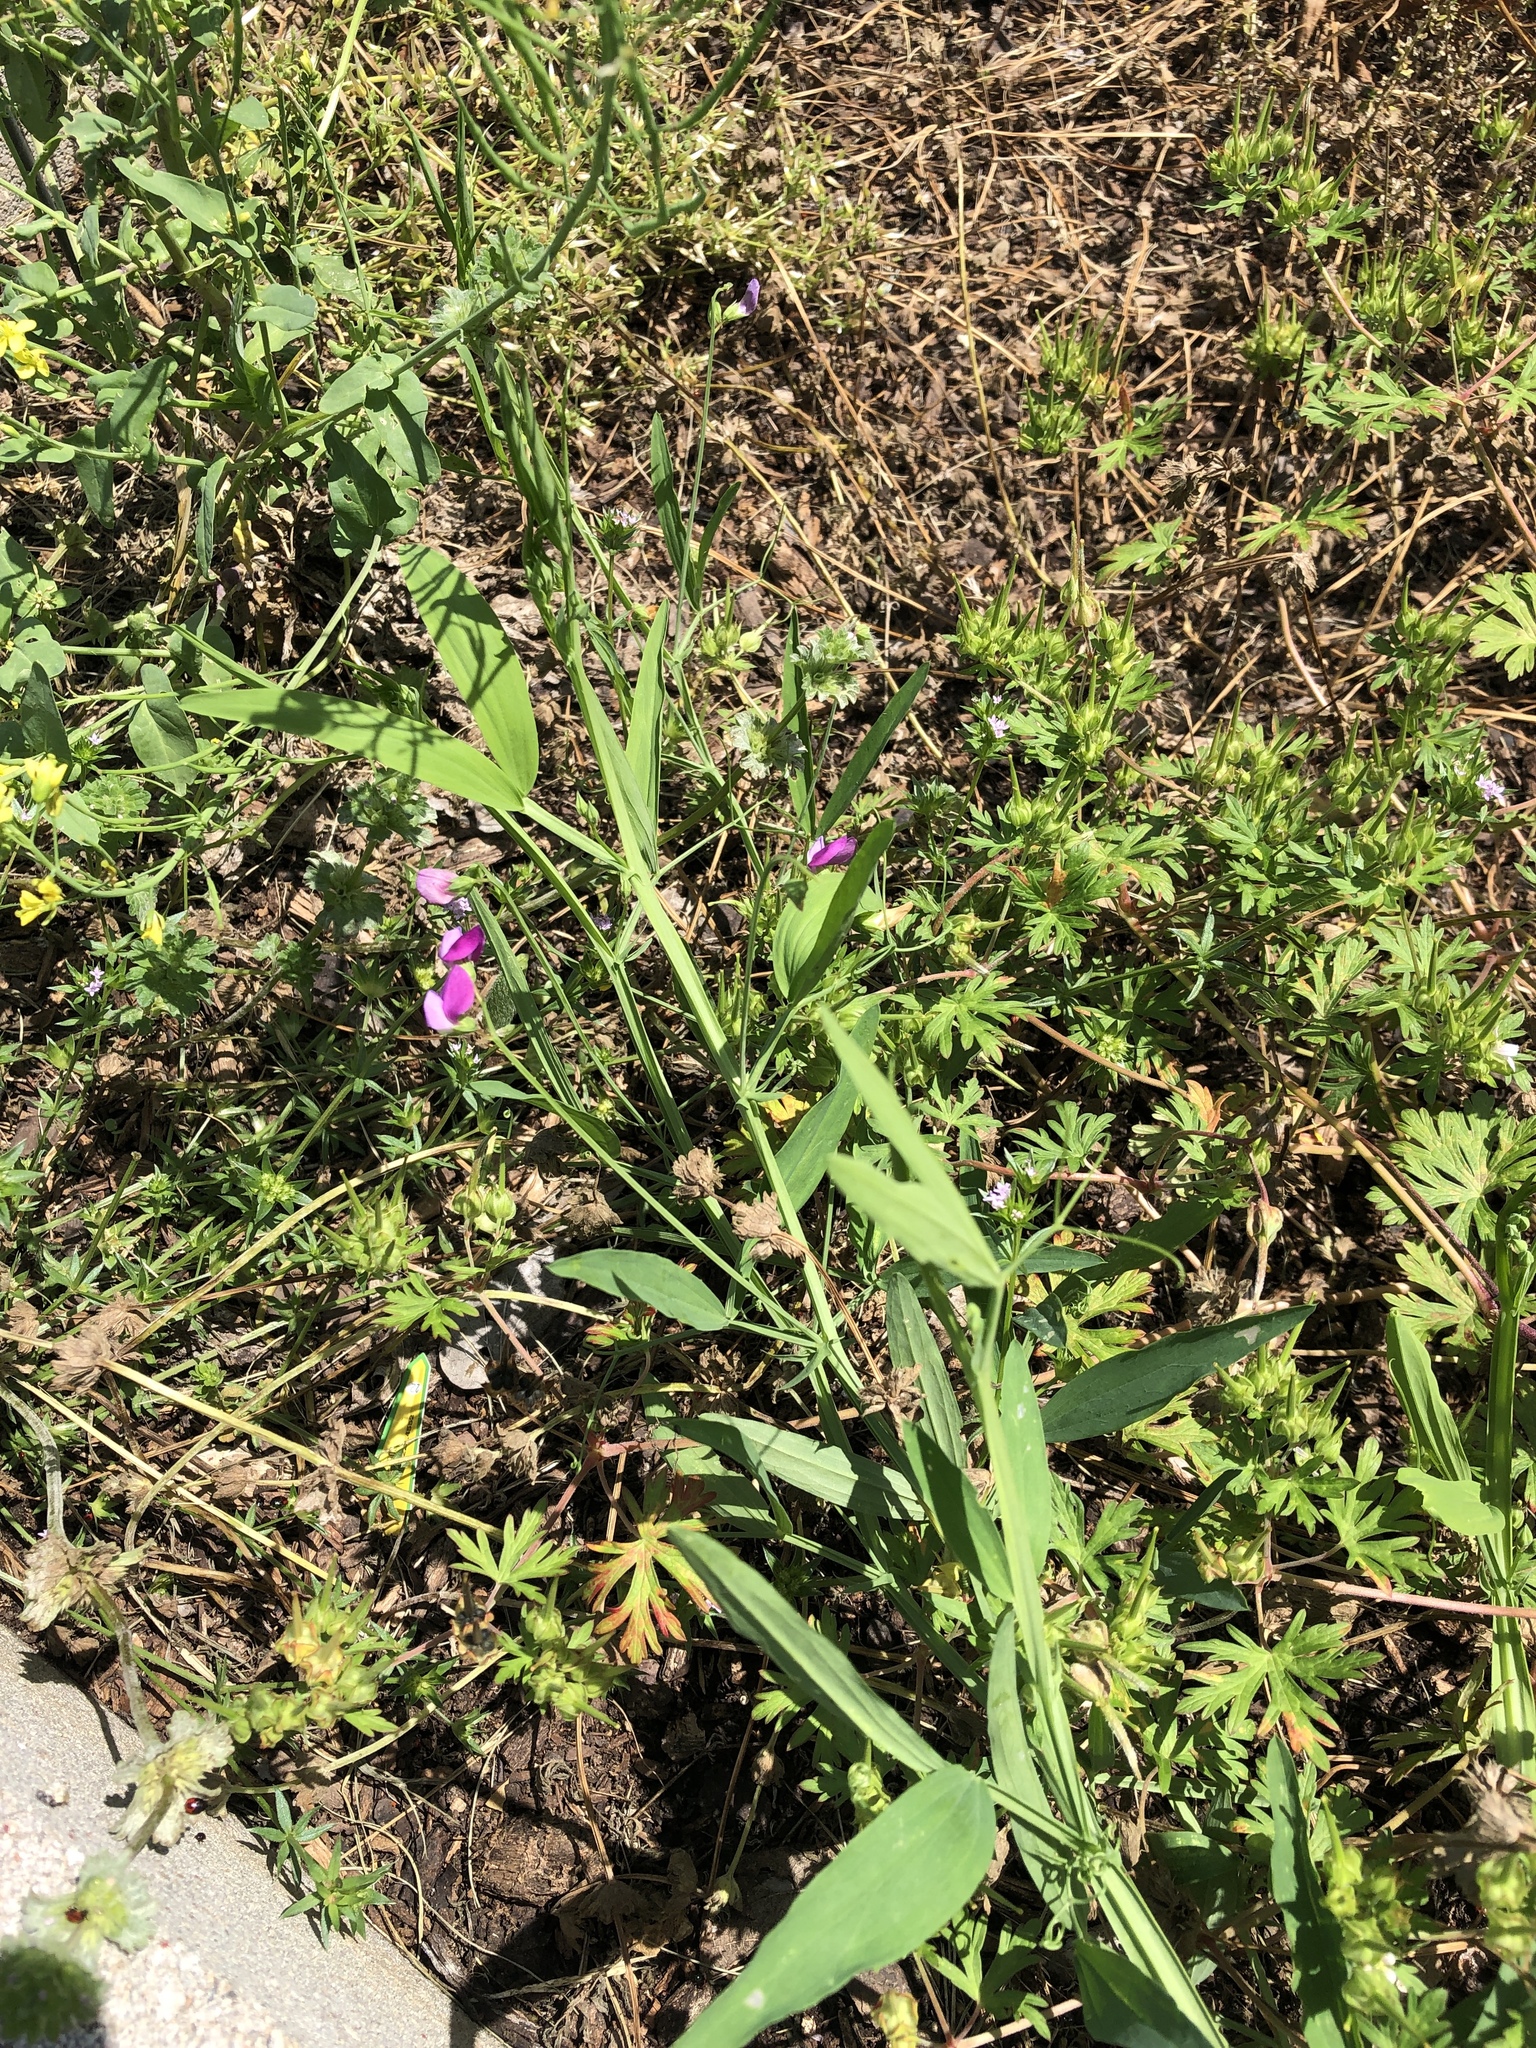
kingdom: Plantae
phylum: Tracheophyta
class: Magnoliopsida
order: Fabales
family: Fabaceae
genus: Lathyrus
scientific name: Lathyrus hirsutus
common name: Hairy vetchling
